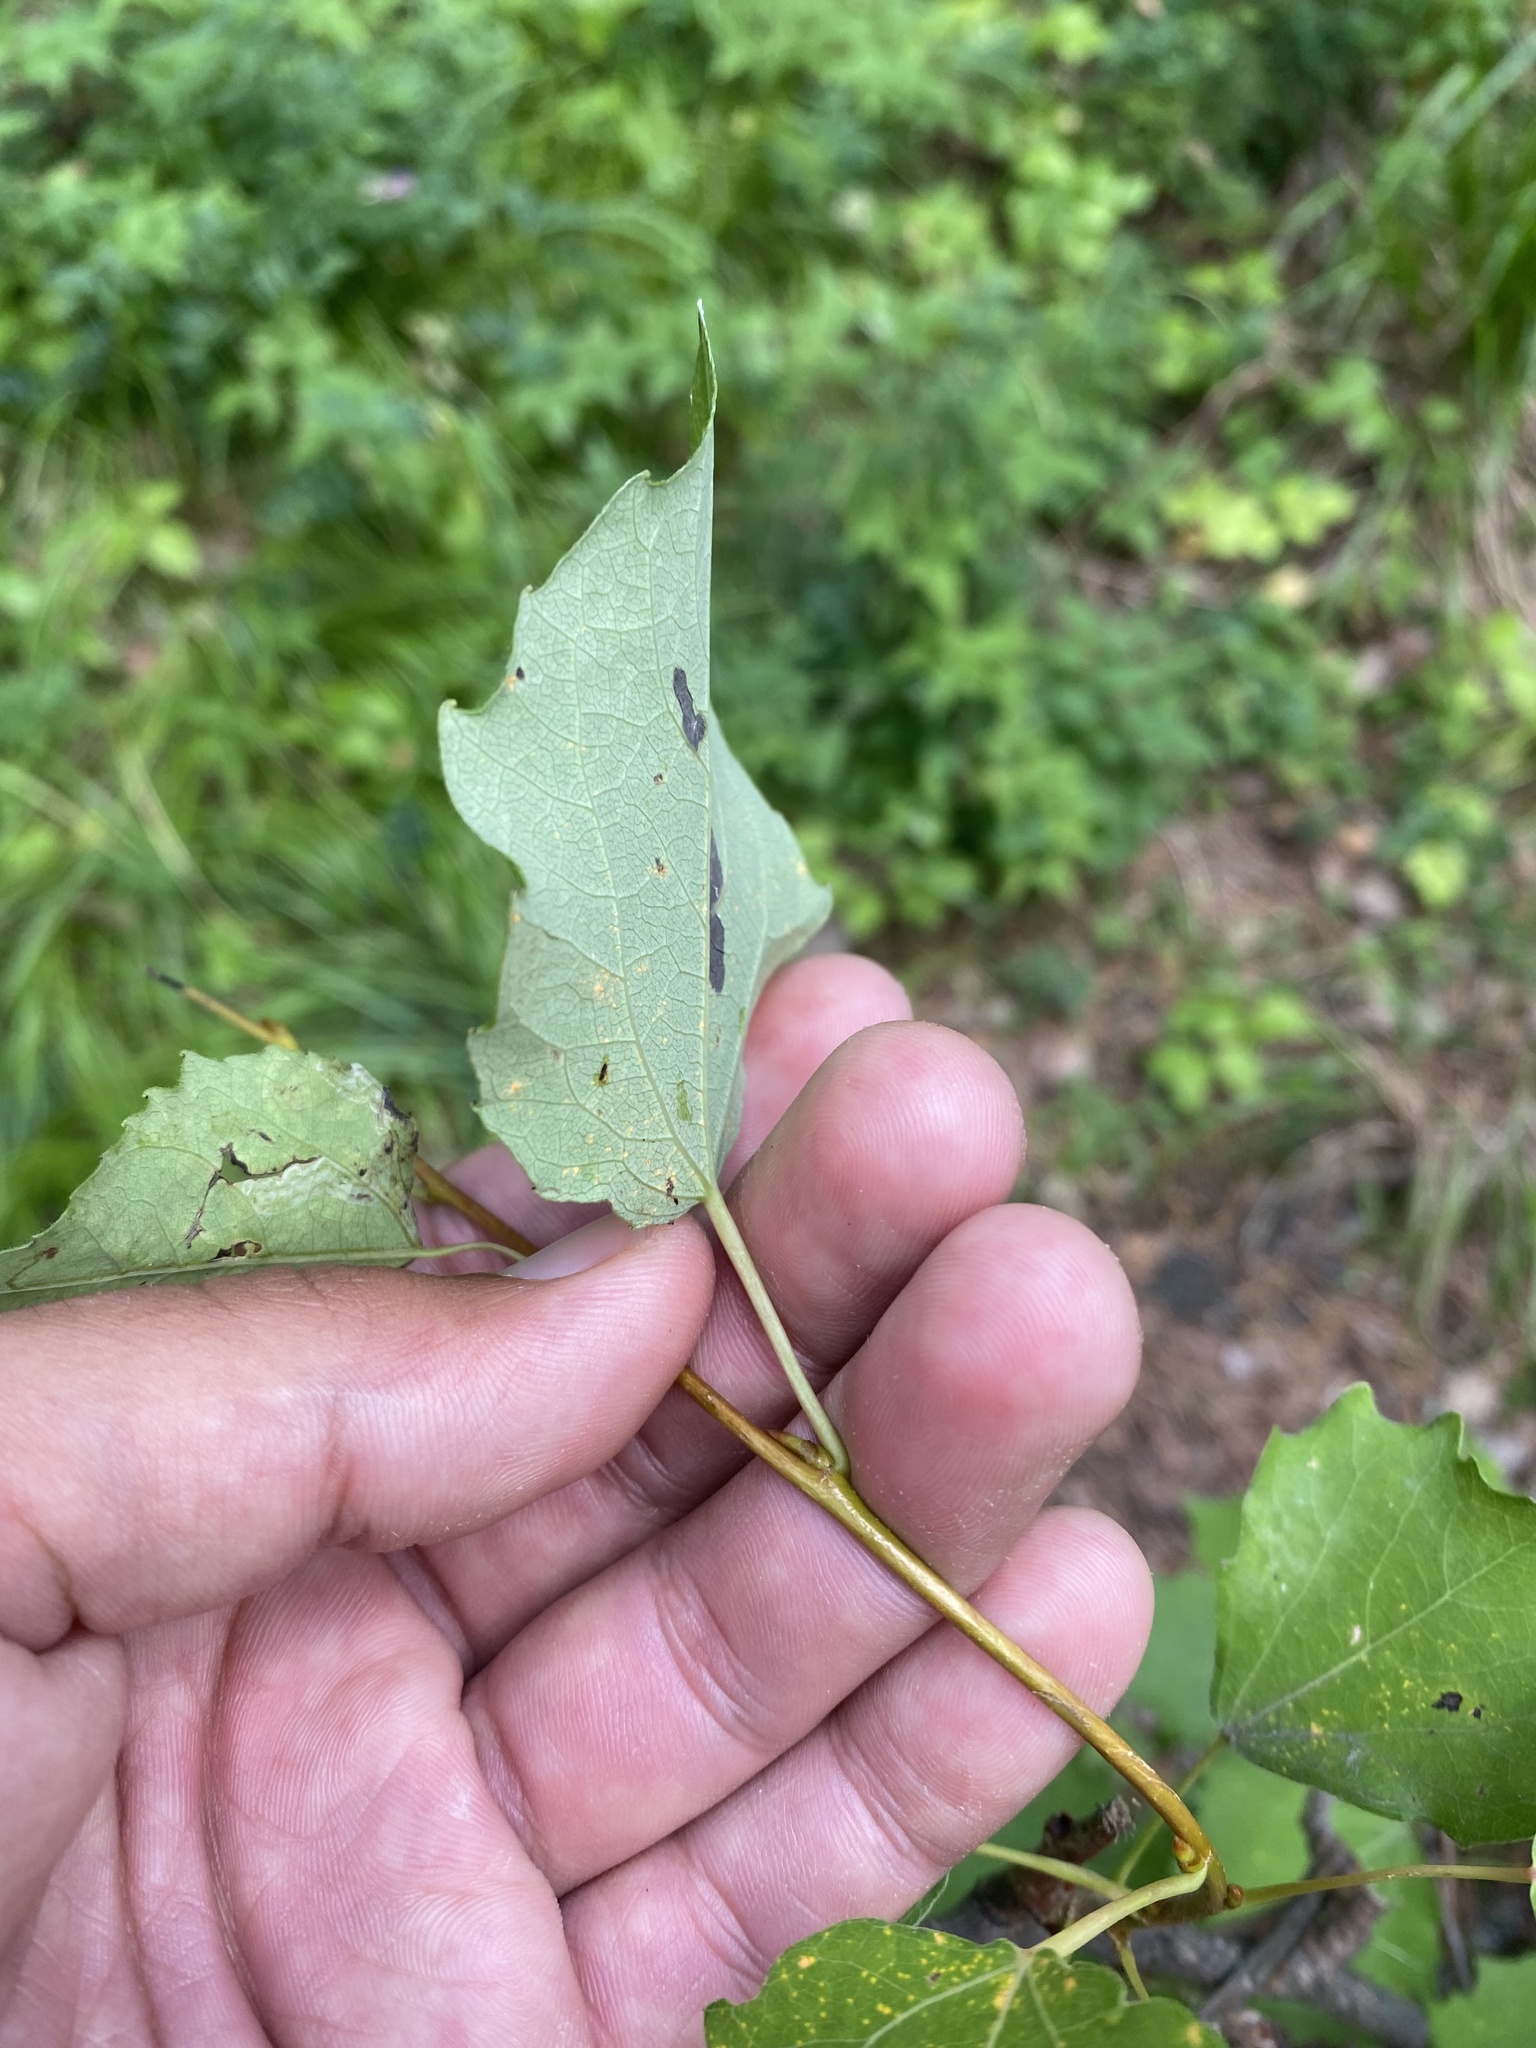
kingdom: Plantae
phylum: Tracheophyta
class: Magnoliopsida
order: Malpighiales
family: Salicaceae
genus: Populus
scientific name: Populus tremula
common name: European aspen
